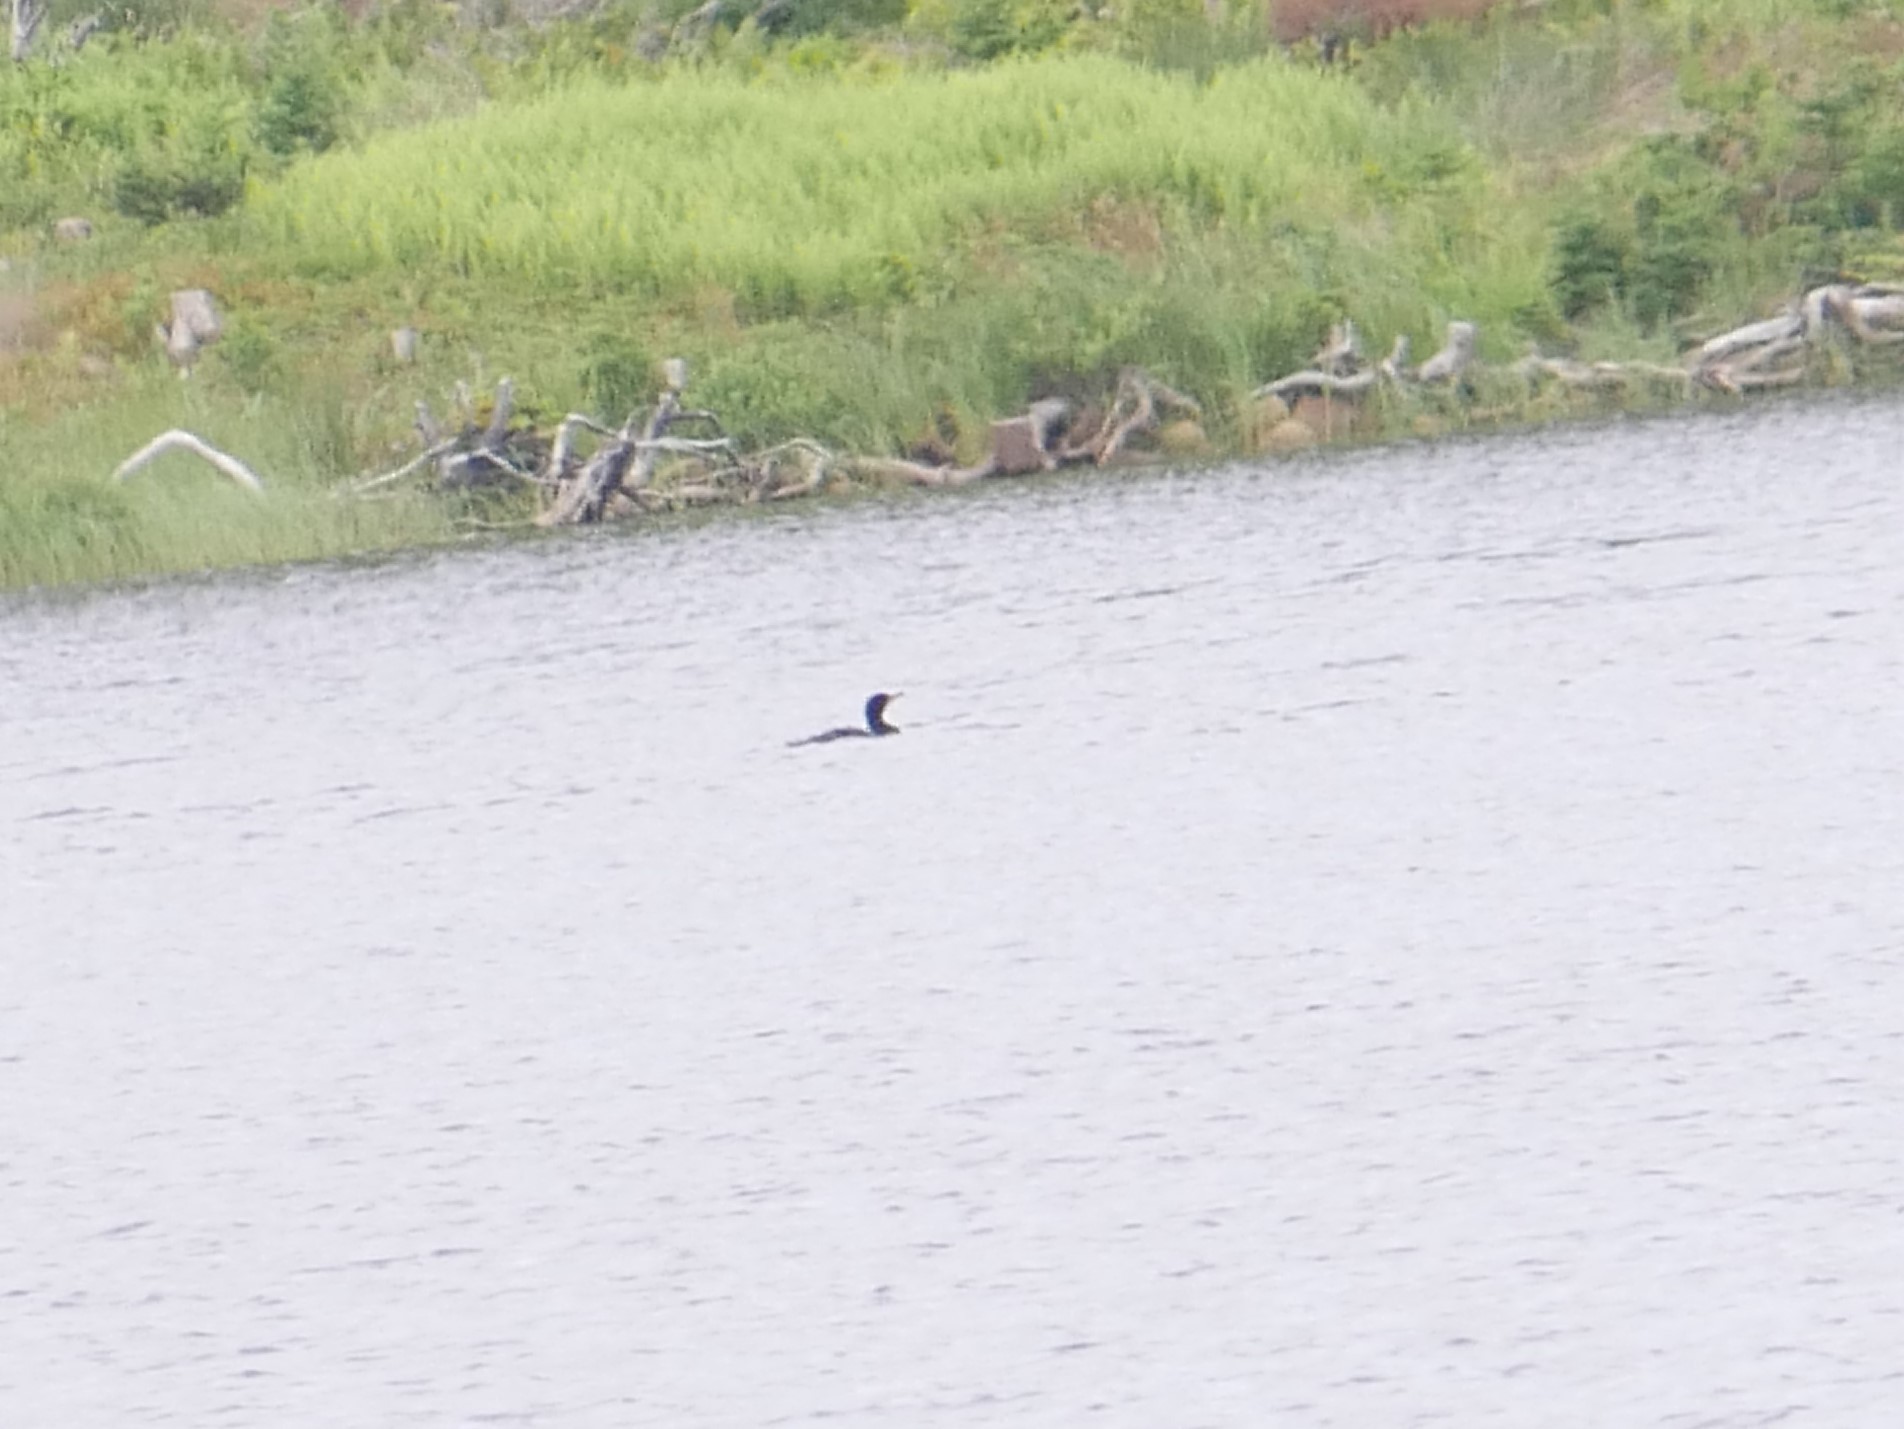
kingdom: Animalia
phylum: Chordata
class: Aves
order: Suliformes
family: Phalacrocoracidae
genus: Phalacrocorax
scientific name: Phalacrocorax auritus
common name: Double-crested cormorant
